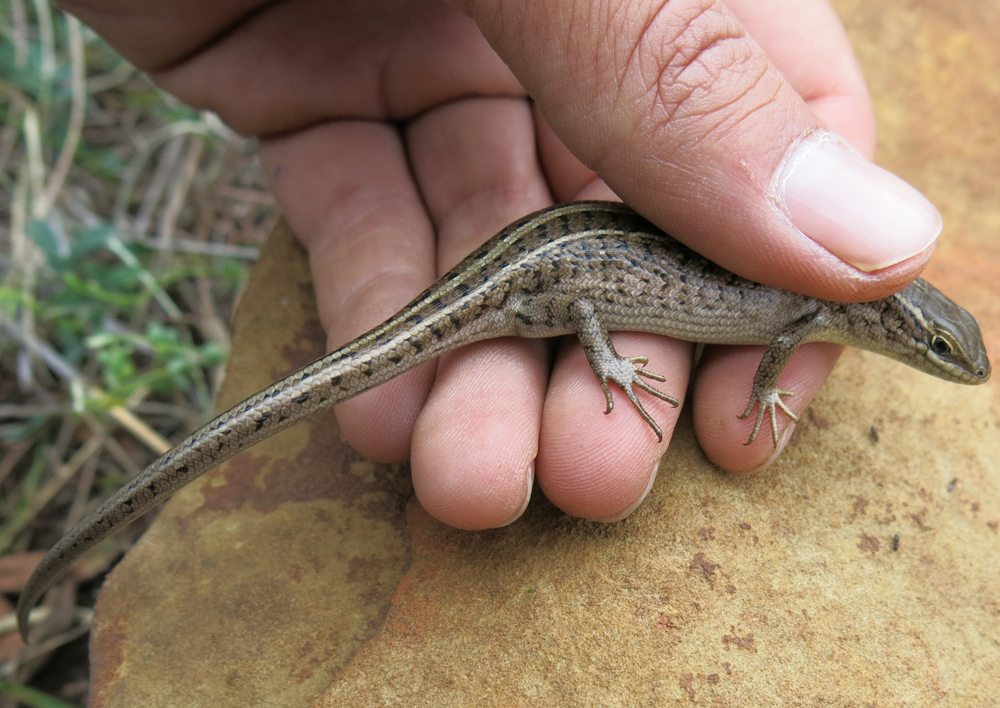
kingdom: Animalia
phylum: Chordata
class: Squamata
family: Scincidae
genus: Trachylepis
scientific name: Trachylepis capensis
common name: Cape skink
